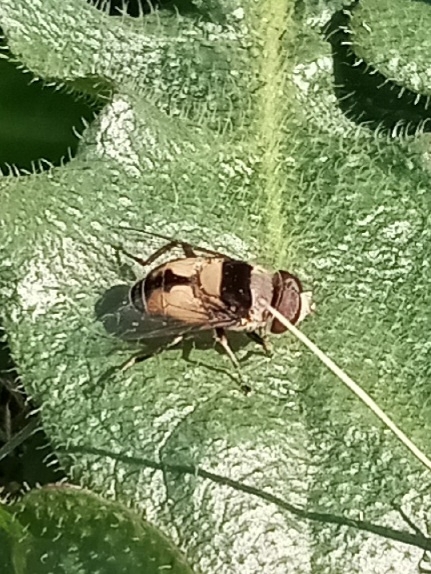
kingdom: Animalia
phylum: Arthropoda
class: Insecta
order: Diptera
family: Syrphidae
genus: Palpada
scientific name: Palpada pusilla
